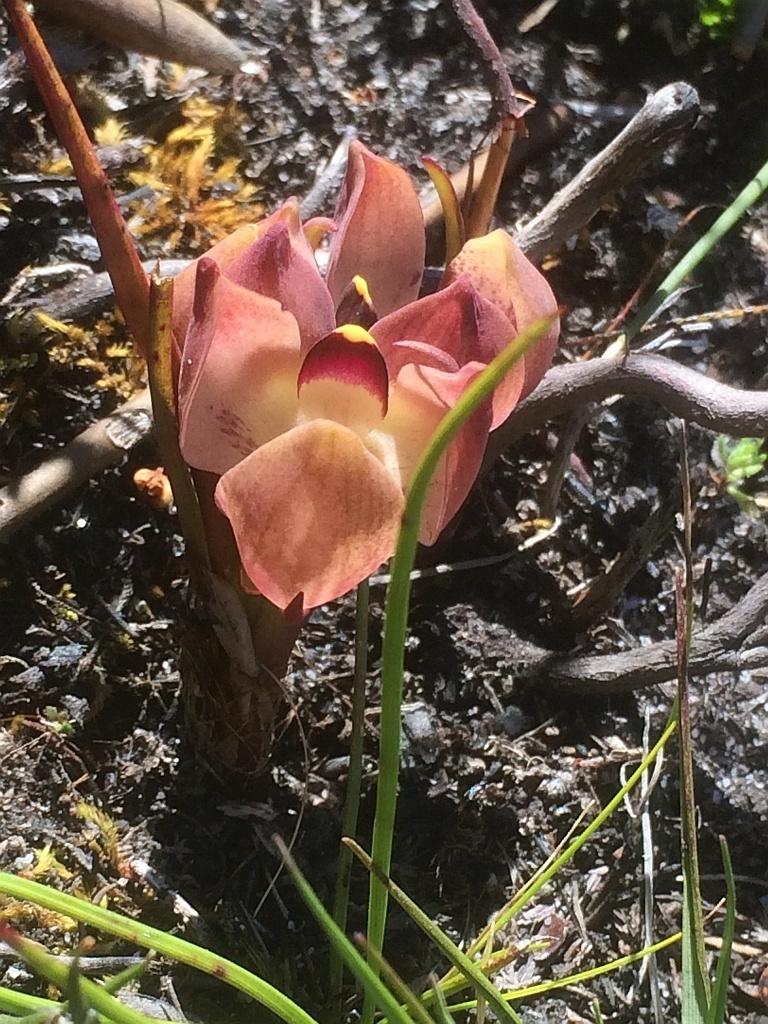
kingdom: Plantae
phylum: Tracheophyta
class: Liliopsida
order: Asparagales
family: Orchidaceae
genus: Disa
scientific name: Disa bodkinii
